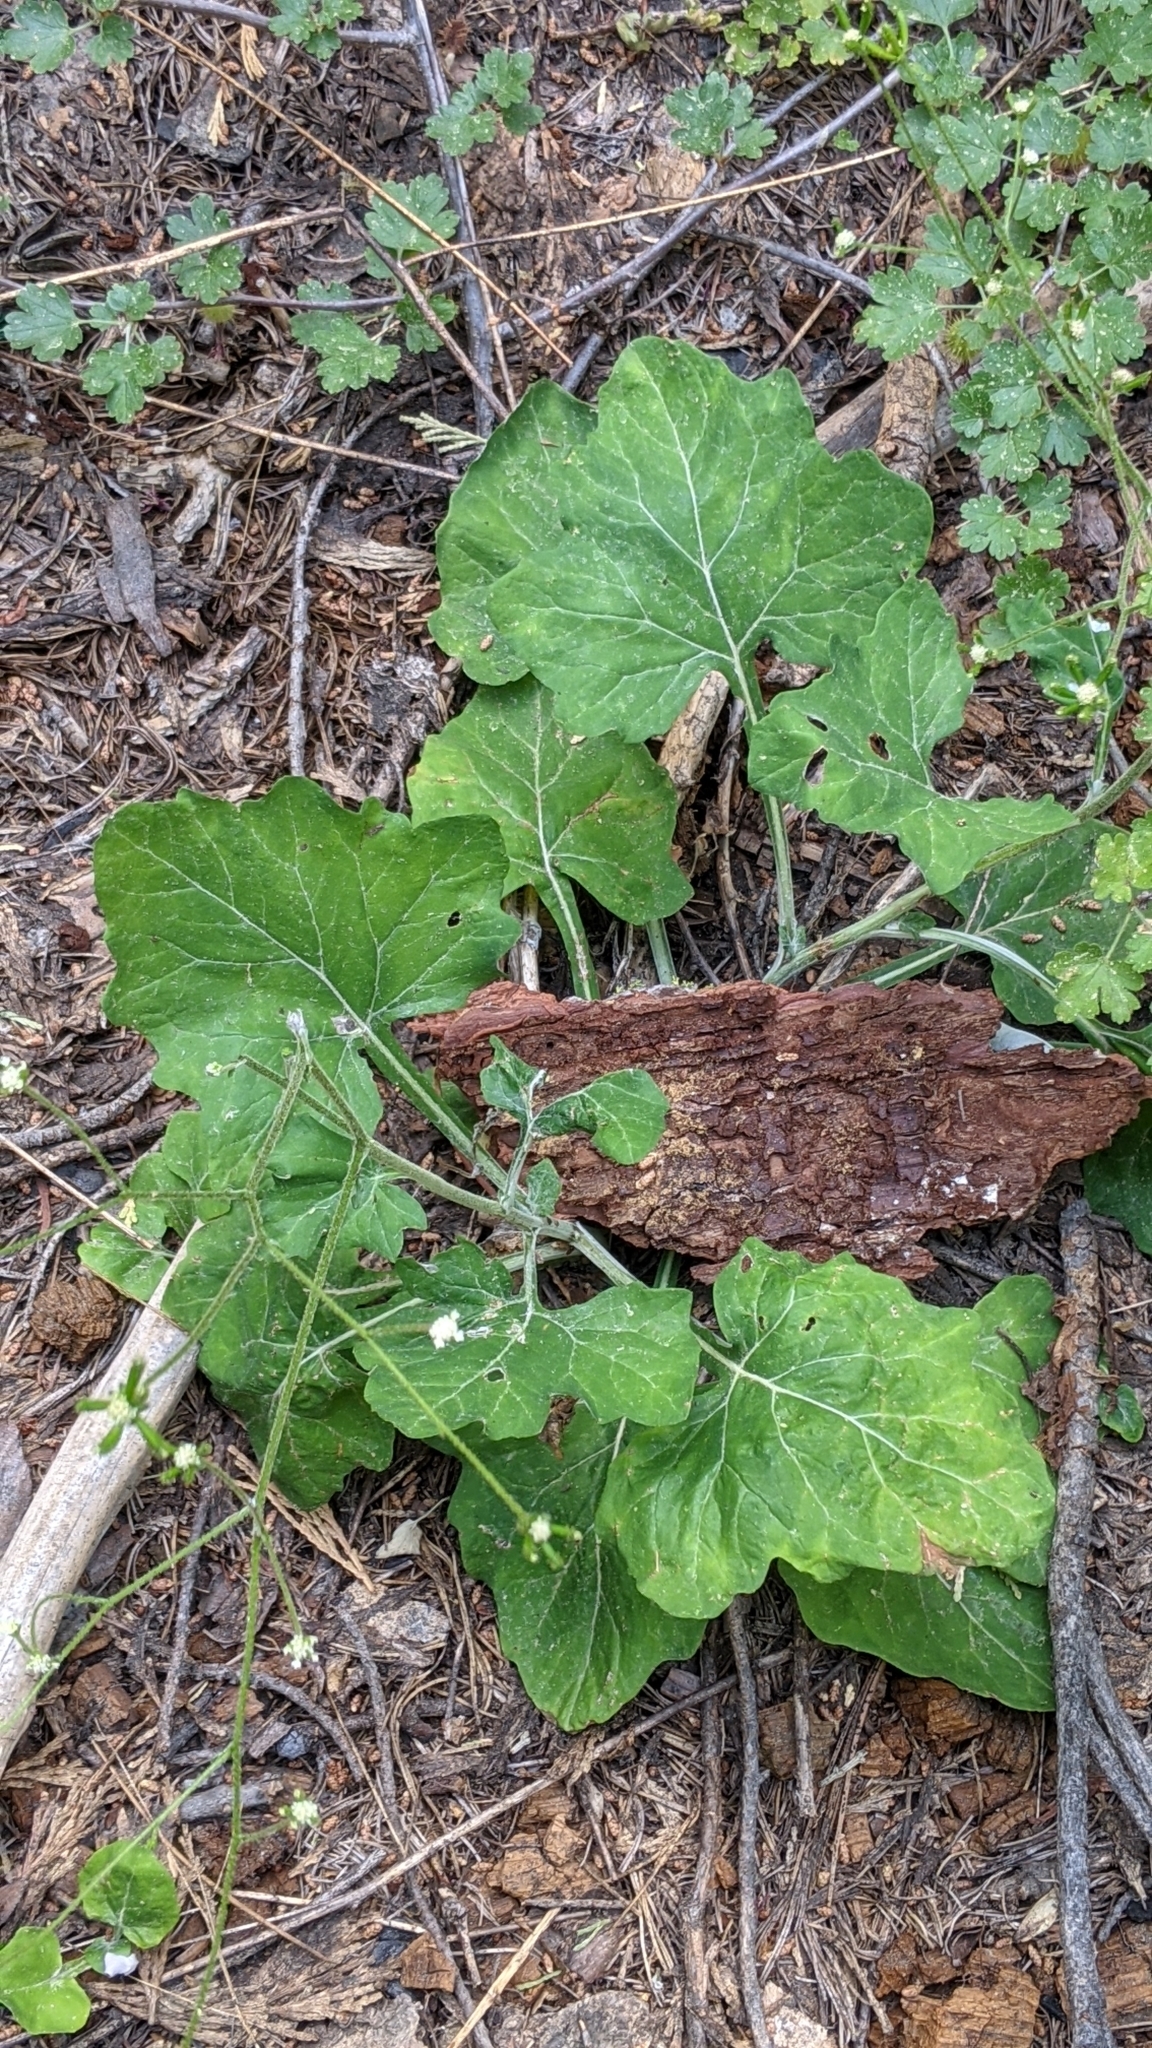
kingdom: Plantae
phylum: Tracheophyta
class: Magnoliopsida
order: Asterales
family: Asteraceae
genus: Adenocaulon
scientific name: Adenocaulon bicolor
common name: Trailplant
